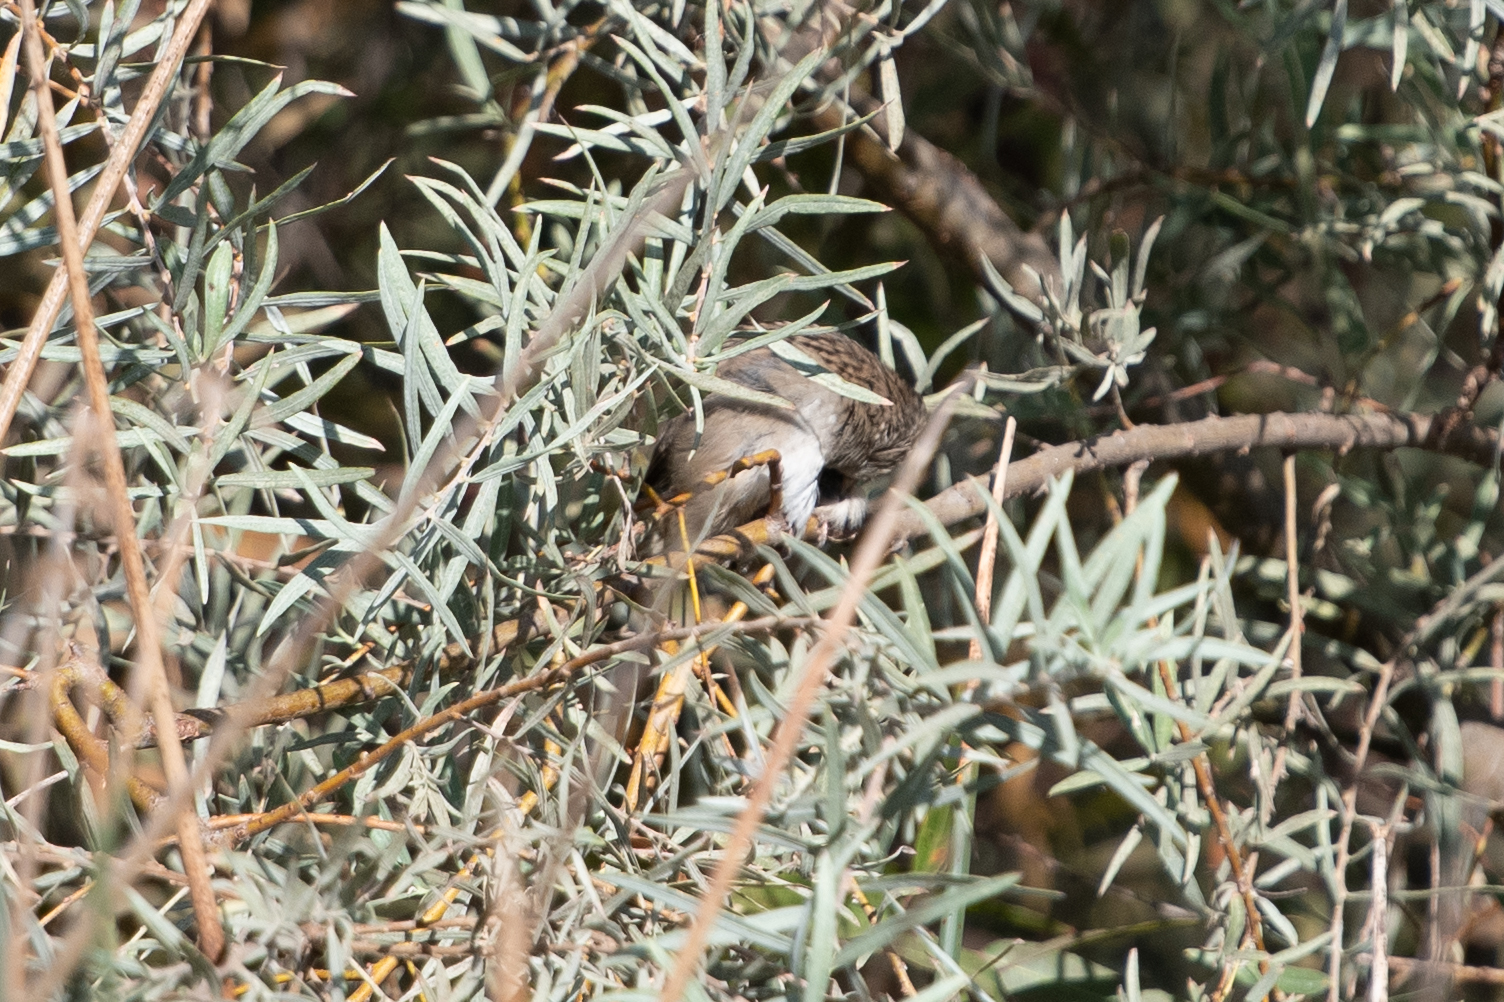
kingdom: Animalia
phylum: Chordata
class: Aves
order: Passeriformes
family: Passerellidae
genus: Zonotrichia
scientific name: Zonotrichia atricapilla
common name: Golden-crowned sparrow
